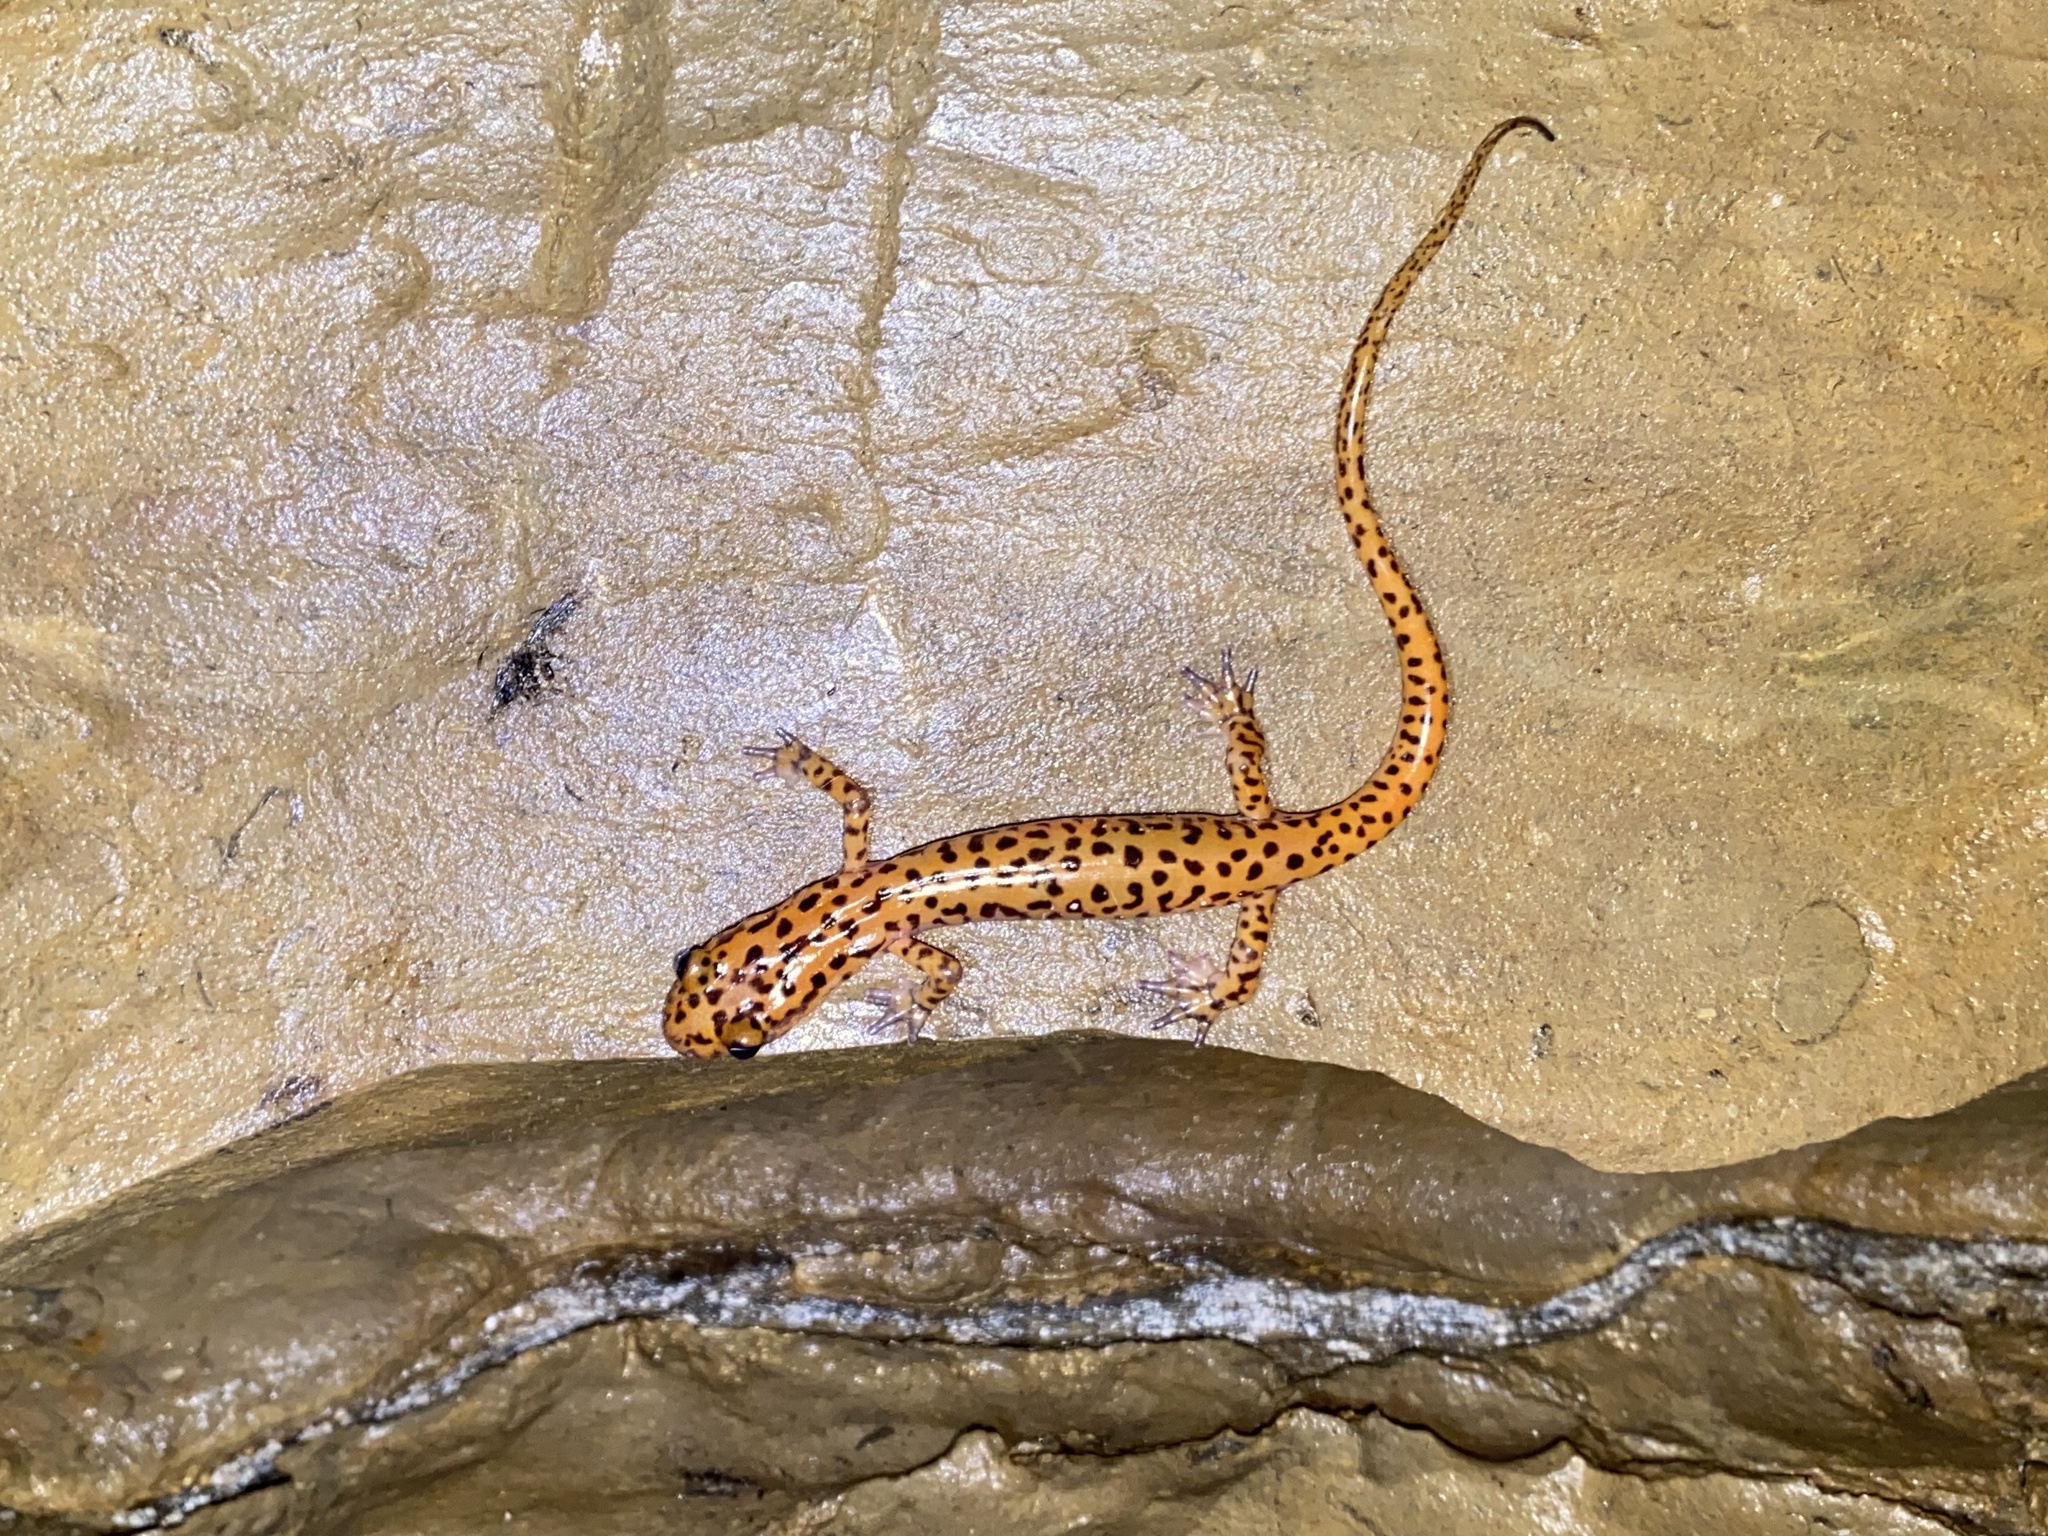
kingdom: Animalia
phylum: Chordata
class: Amphibia
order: Caudata
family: Plethodontidae
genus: Eurycea
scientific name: Eurycea lucifuga
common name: Cave salamander
